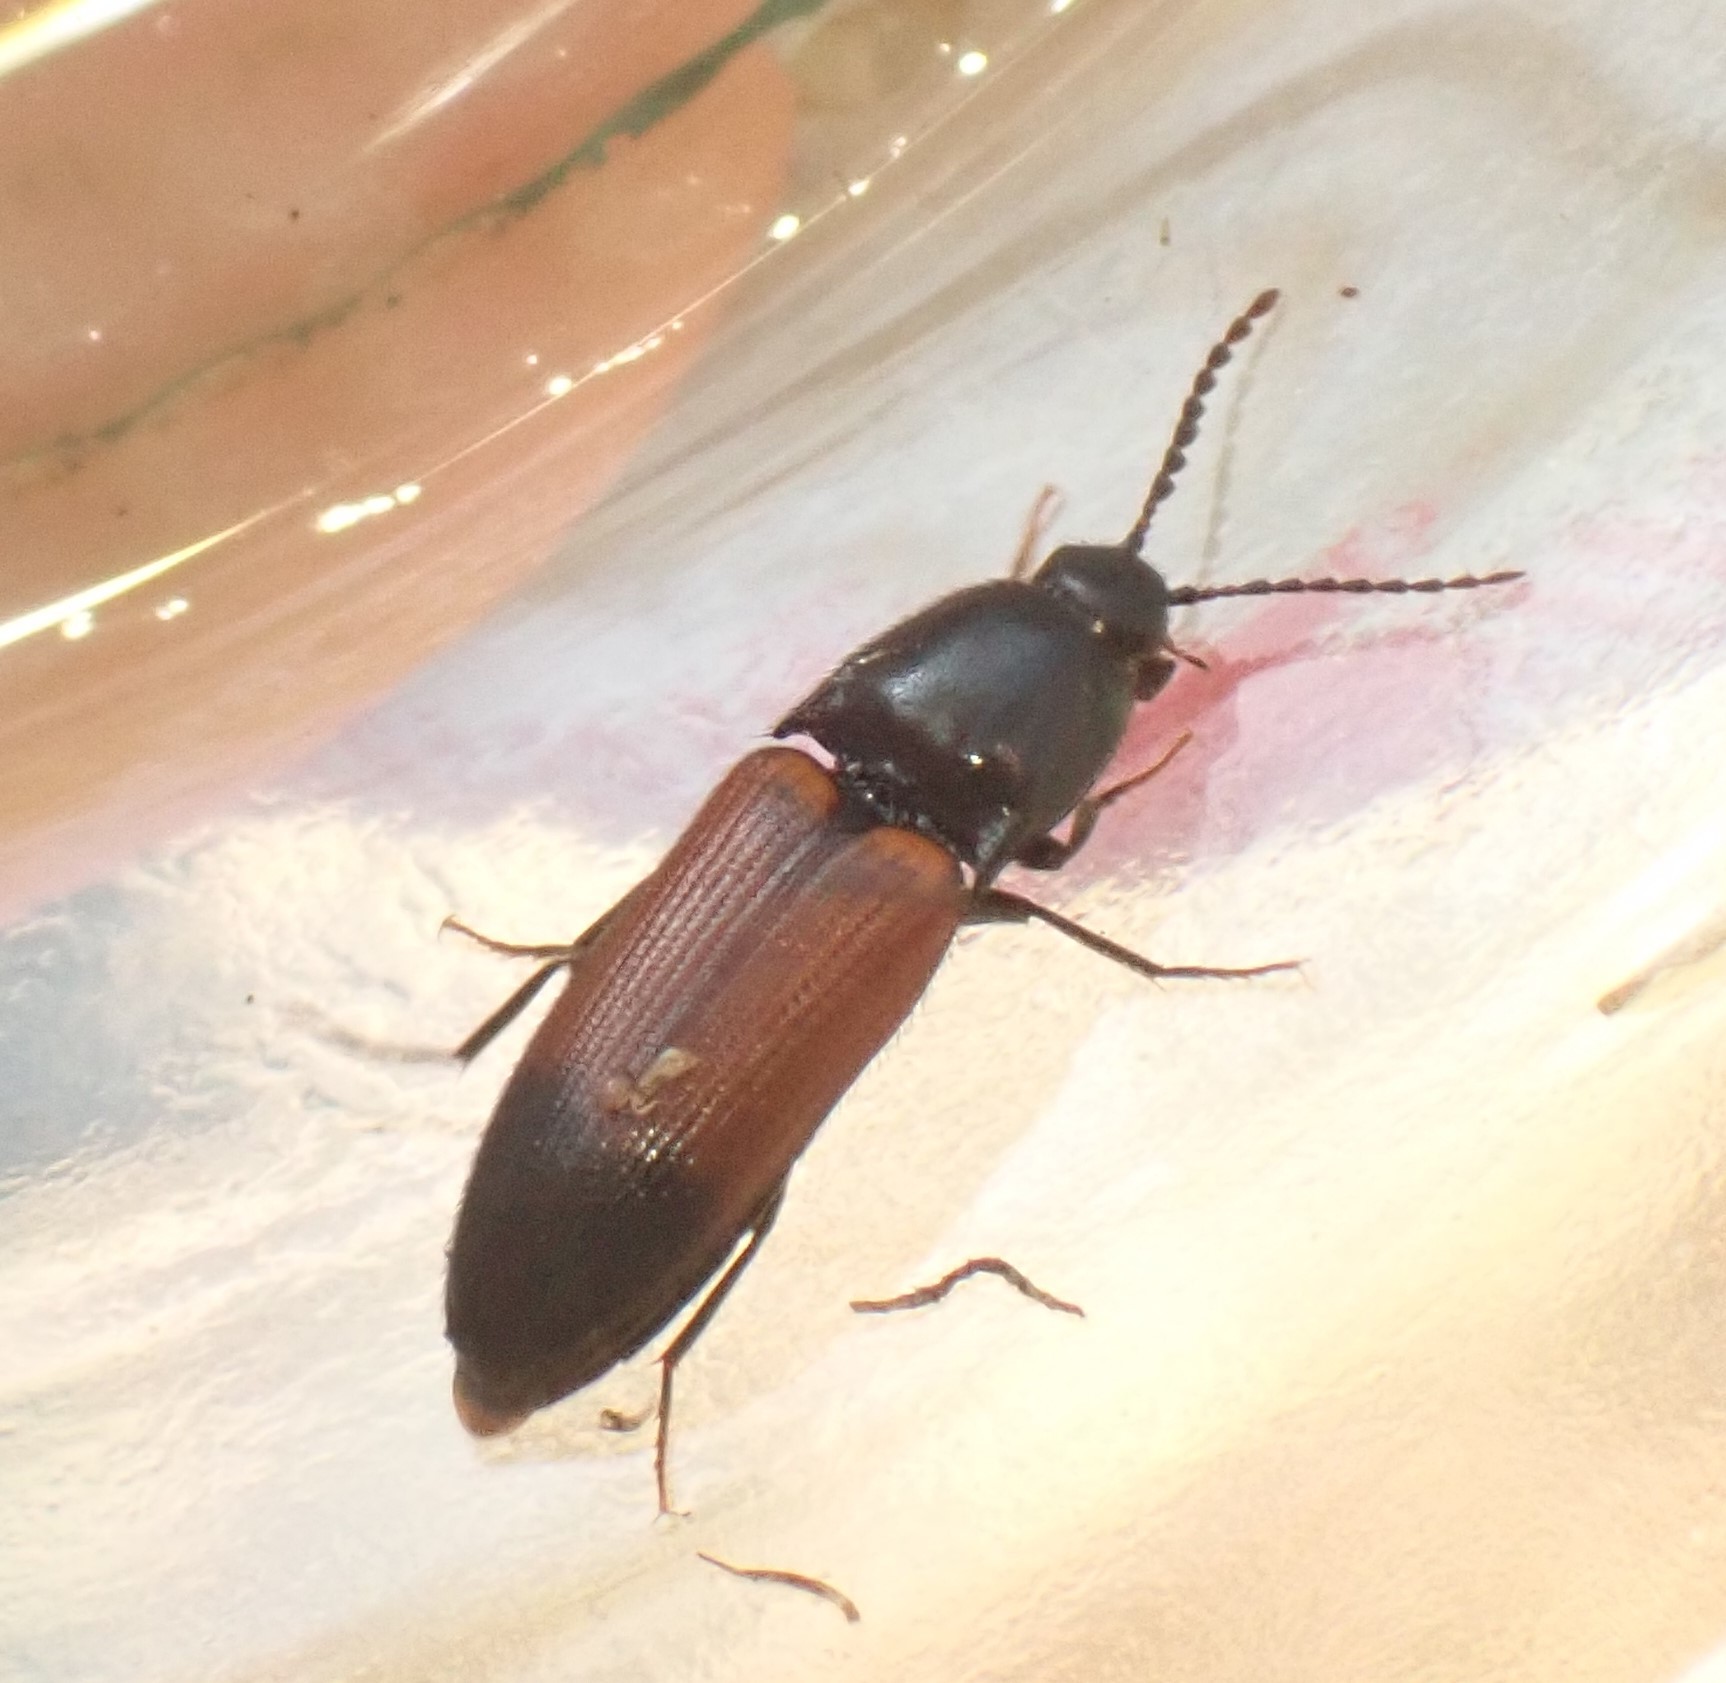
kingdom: Animalia
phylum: Arthropoda
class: Insecta
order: Coleoptera
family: Elateridae
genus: Ampedus
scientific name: Ampedus balteatus
